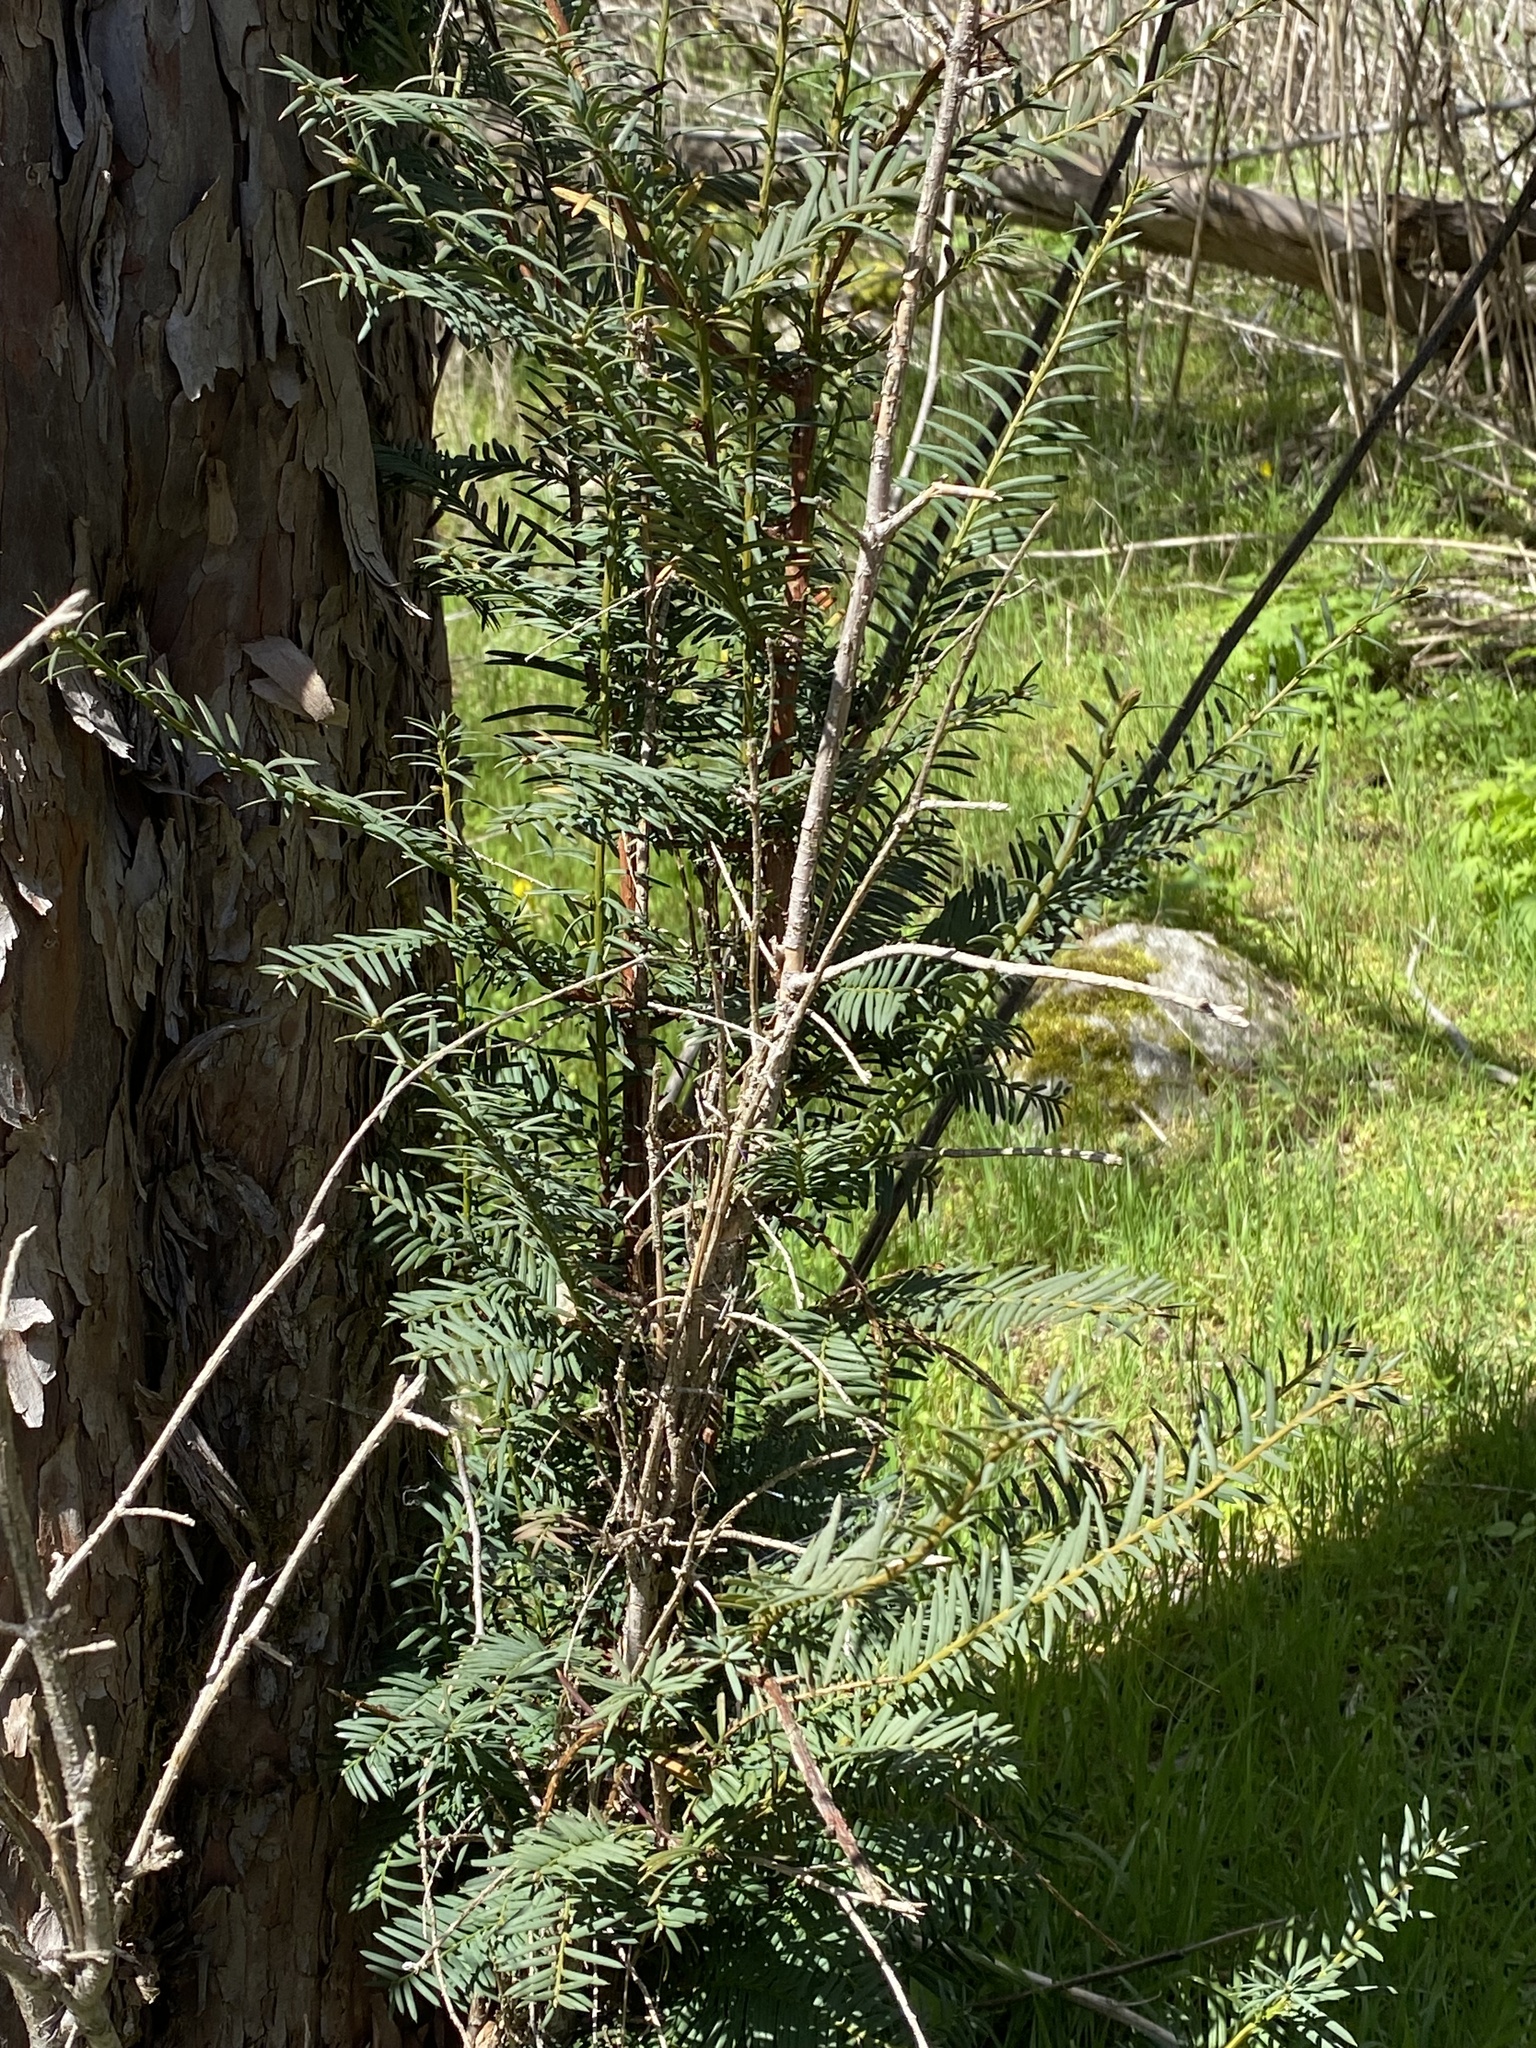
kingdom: Plantae
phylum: Tracheophyta
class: Pinopsida
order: Pinales
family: Taxaceae
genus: Taxus
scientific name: Taxus brevifolia
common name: Pacific yew
